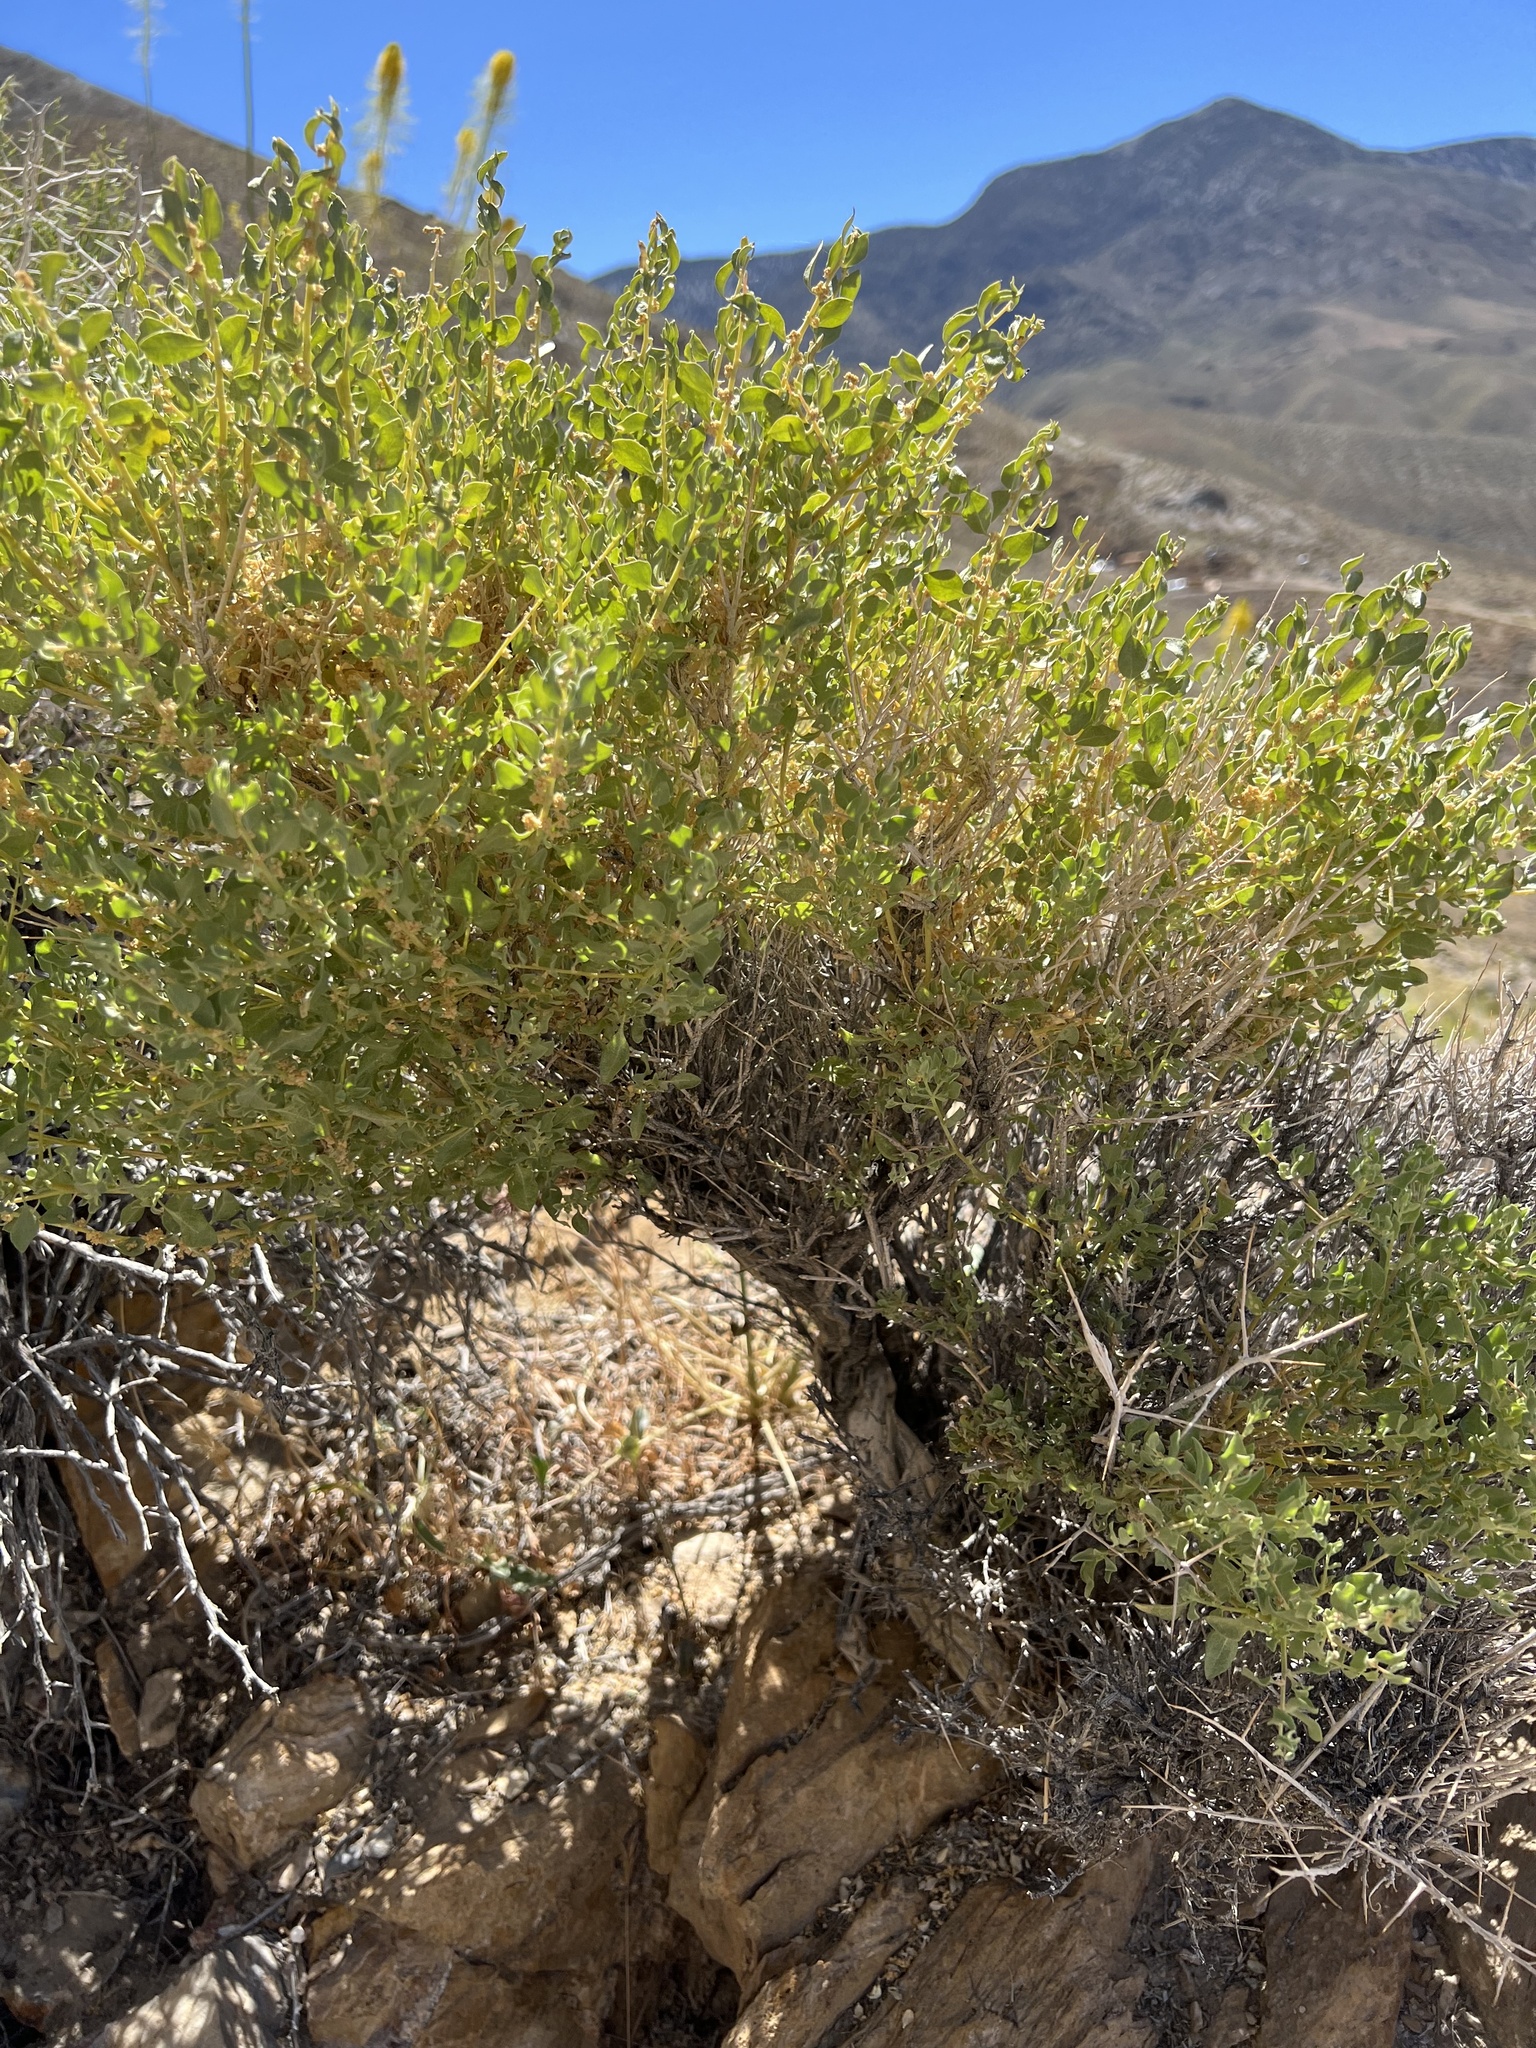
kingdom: Plantae
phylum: Tracheophyta
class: Magnoliopsida
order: Caryophyllales
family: Amaranthaceae
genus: Atriplex
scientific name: Atriplex confertifolia
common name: Shadscale
